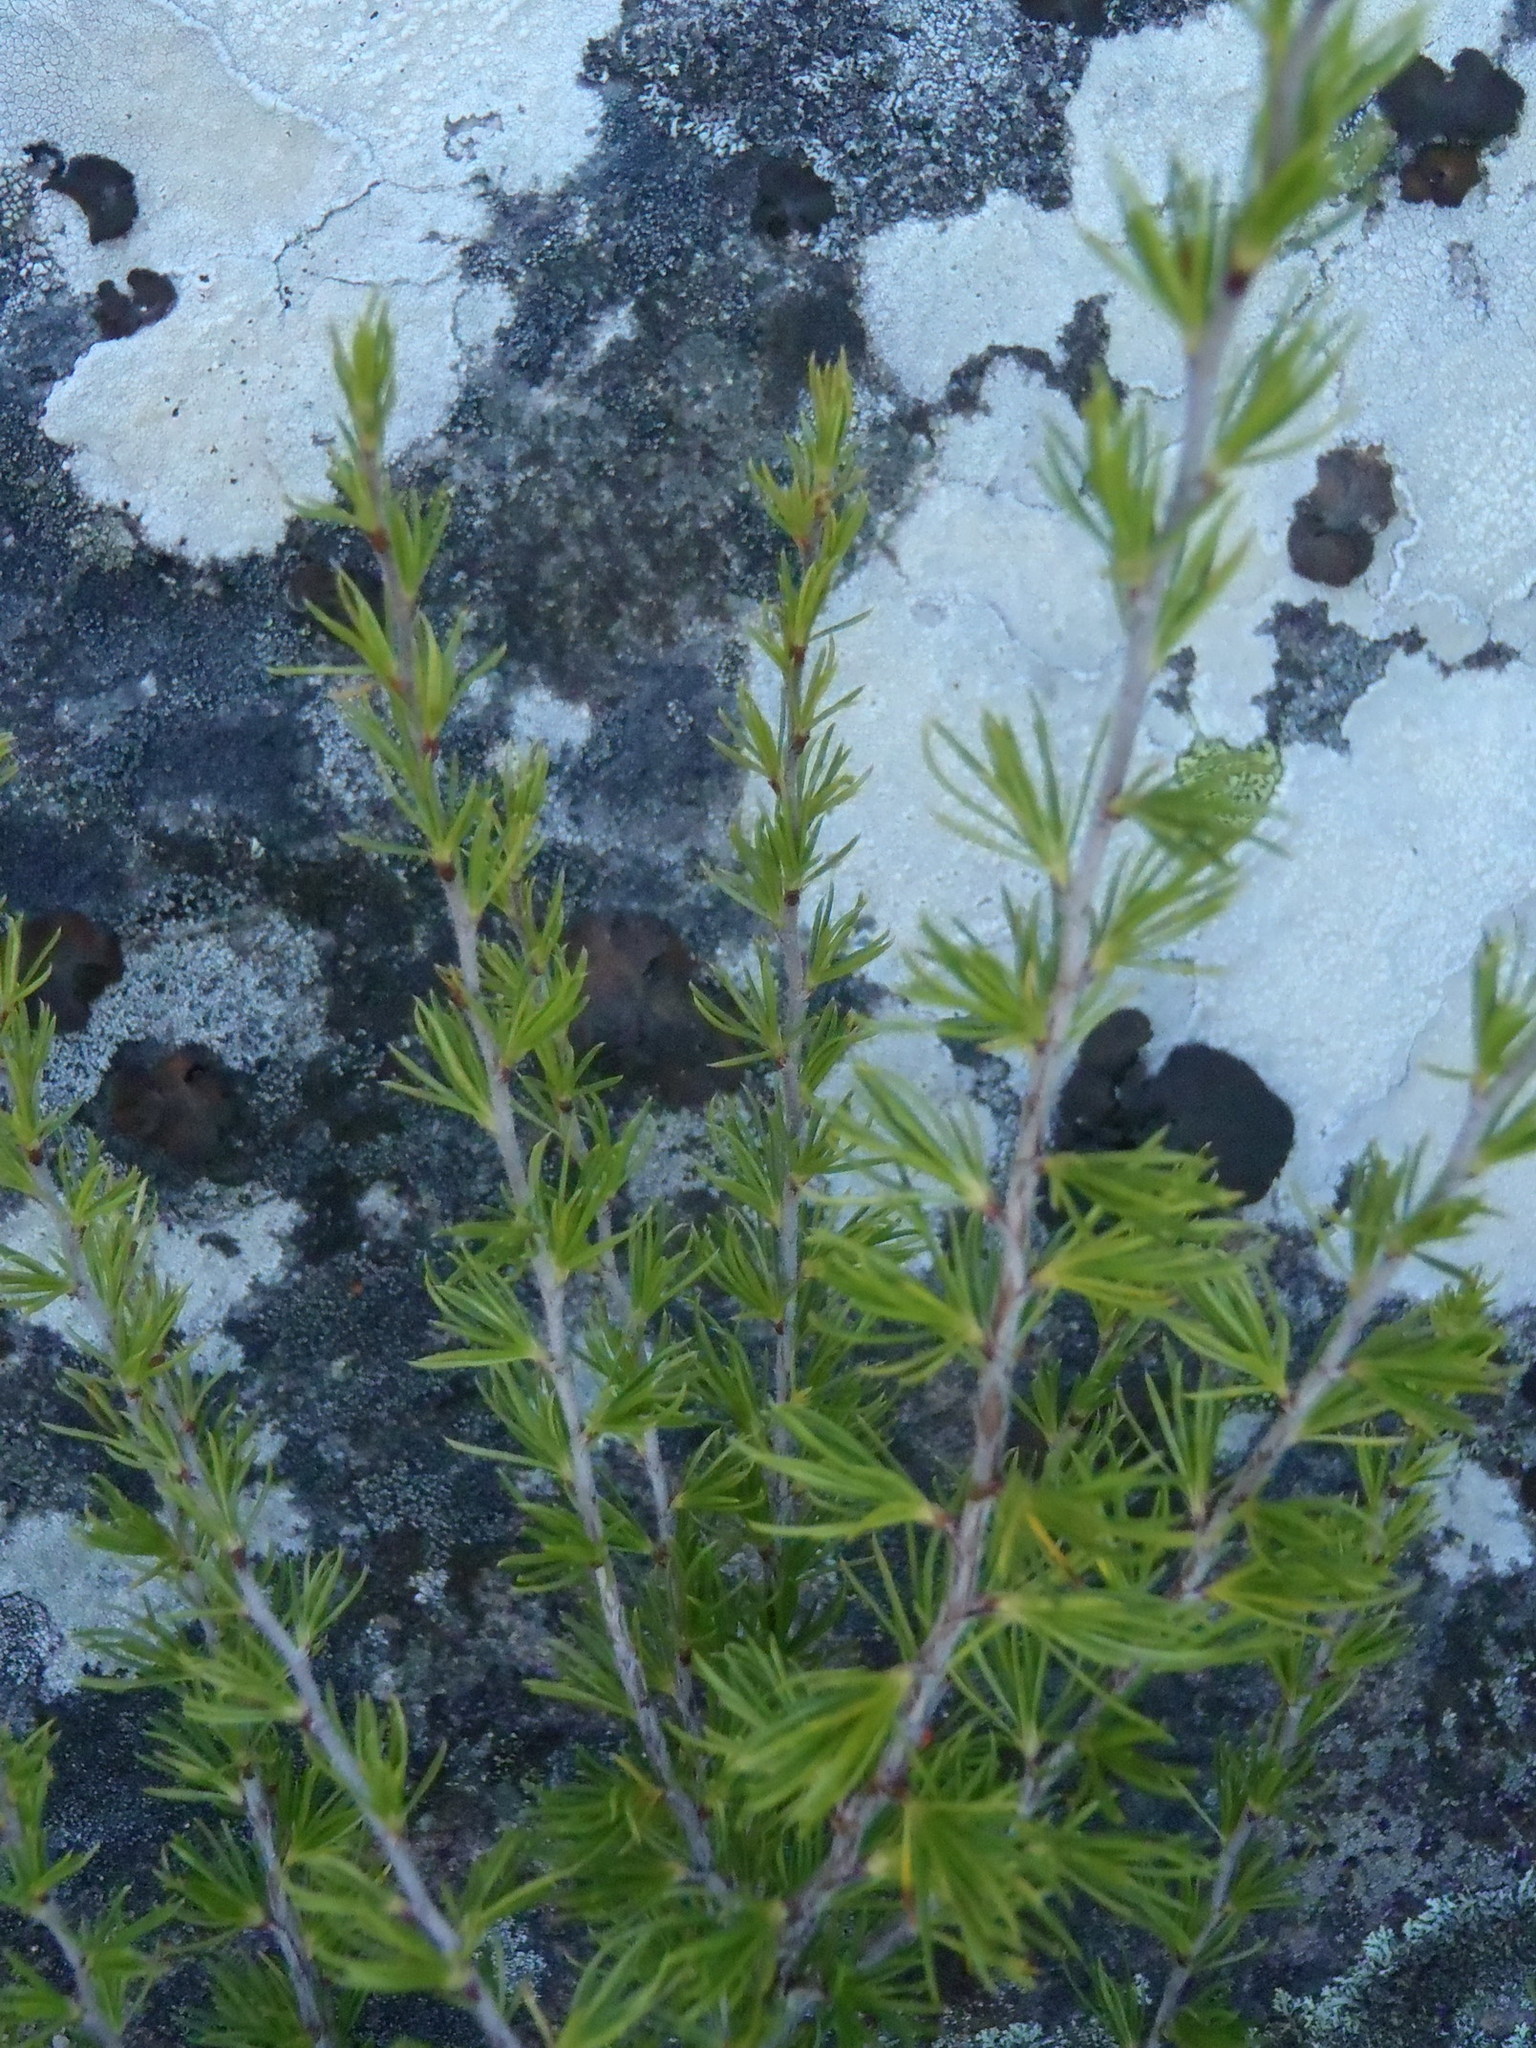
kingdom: Plantae
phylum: Tracheophyta
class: Magnoliopsida
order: Rosales
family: Rosaceae
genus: Cliffortia
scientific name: Cliffortia tuberculata
